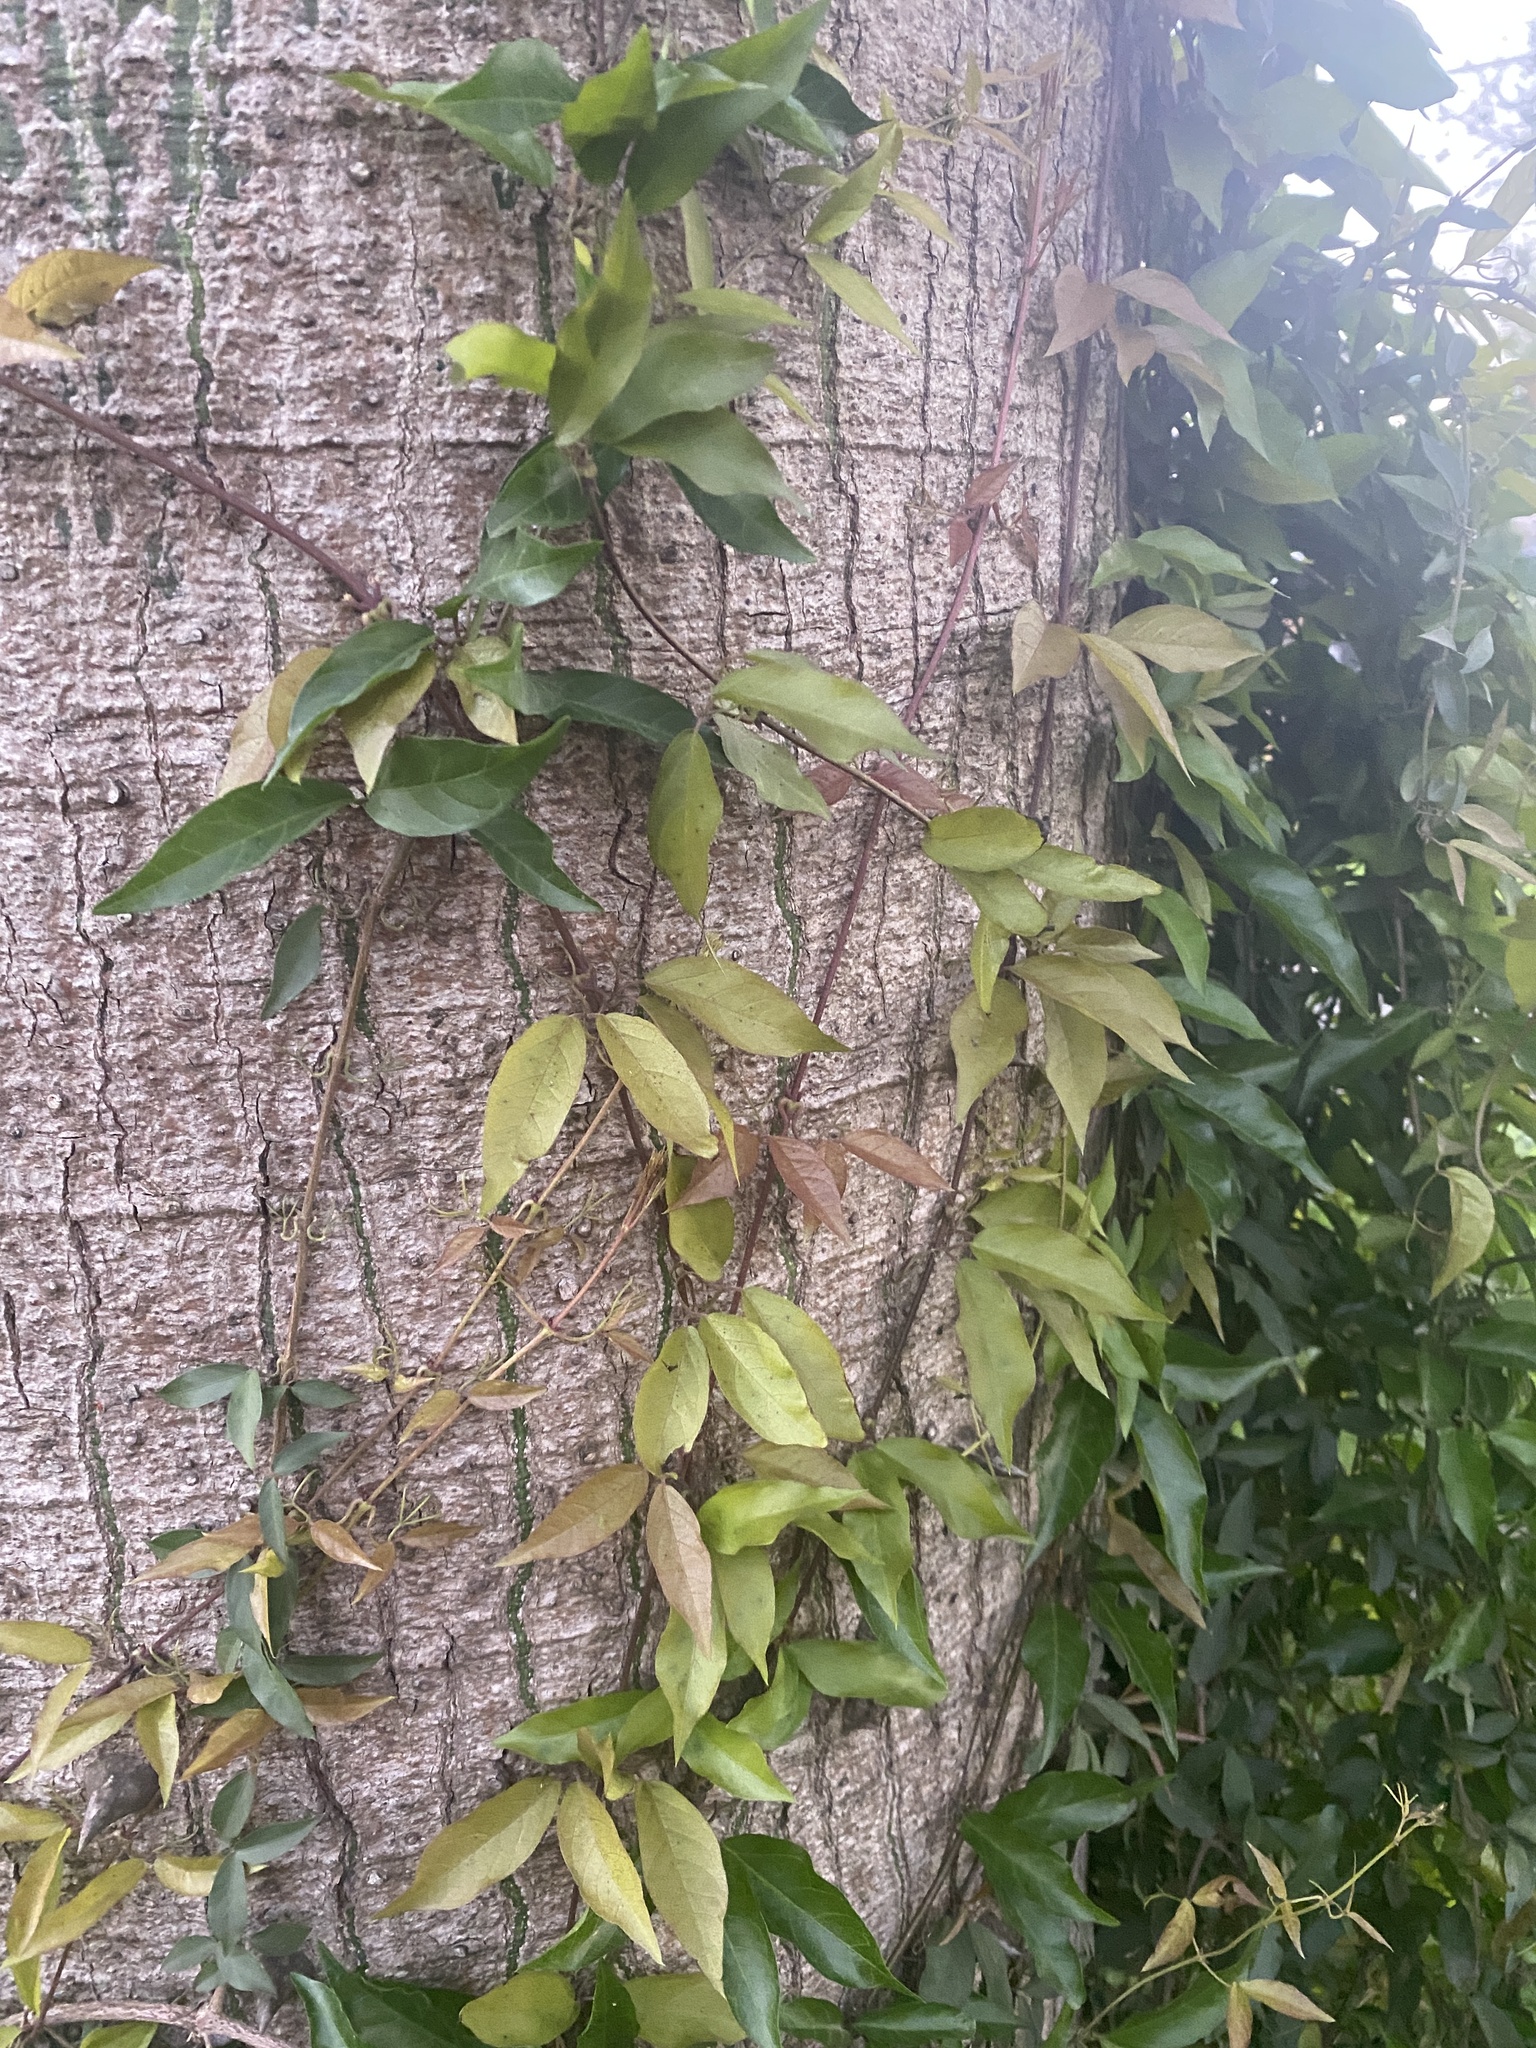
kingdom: Plantae
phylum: Tracheophyta
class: Magnoliopsida
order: Lamiales
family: Bignoniaceae
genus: Dolichandra
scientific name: Dolichandra unguis-cati
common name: Catclaw vine
